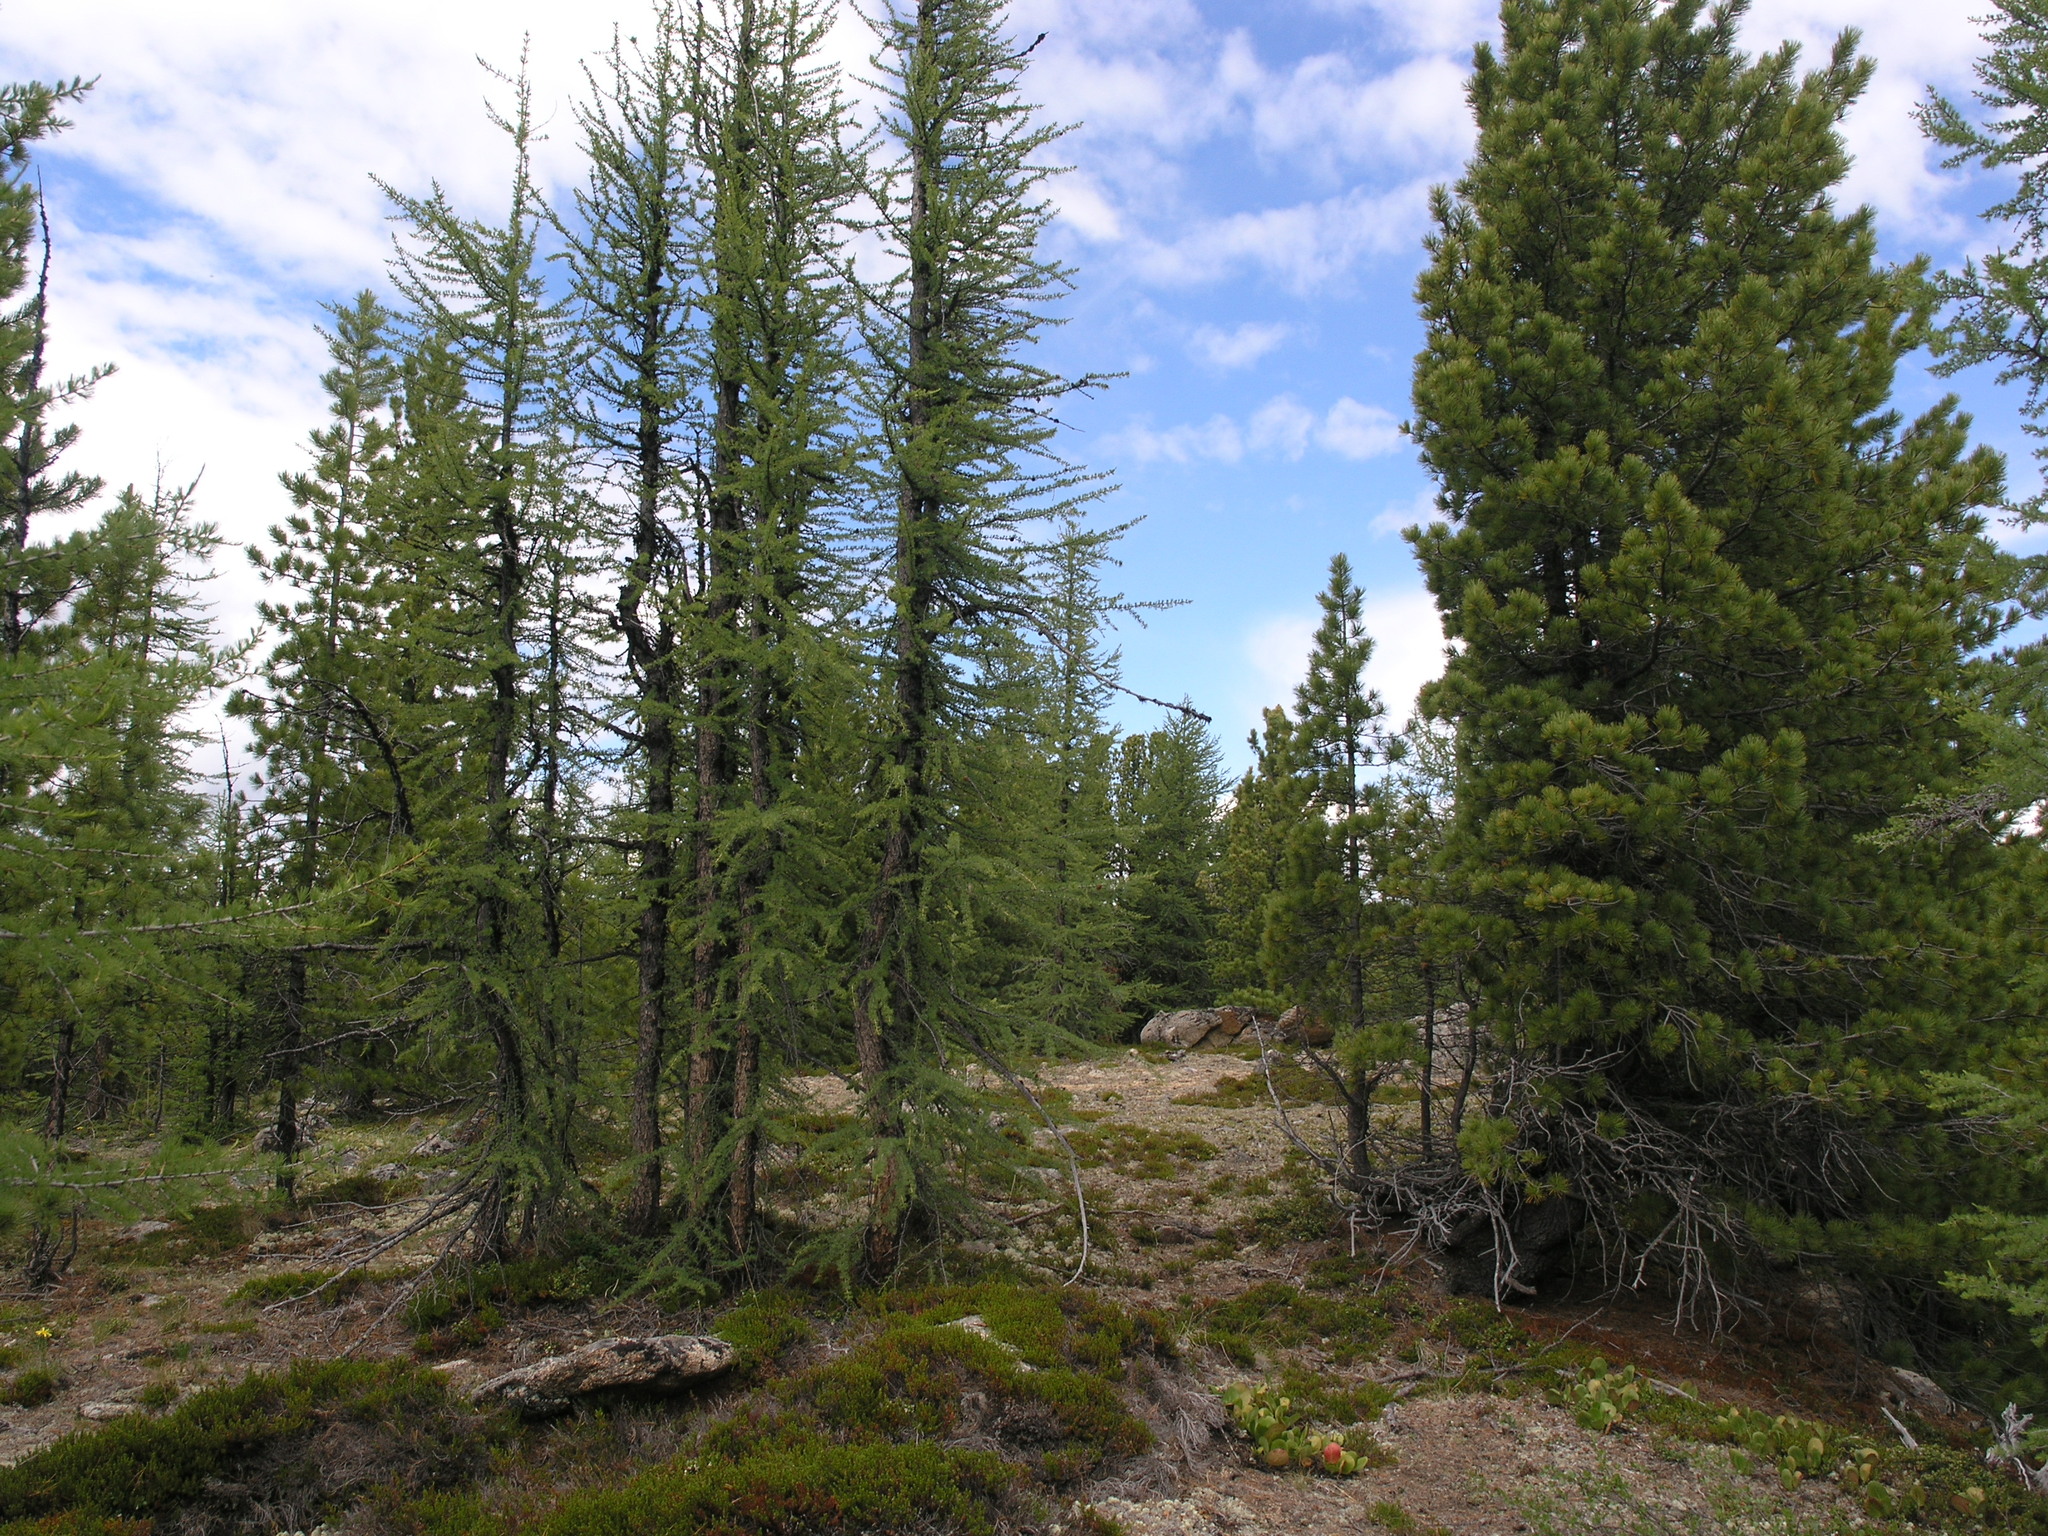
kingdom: Plantae
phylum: Tracheophyta
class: Pinopsida
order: Pinales
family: Pinaceae
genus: Larix
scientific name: Larix sibirica
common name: Siberian larch
